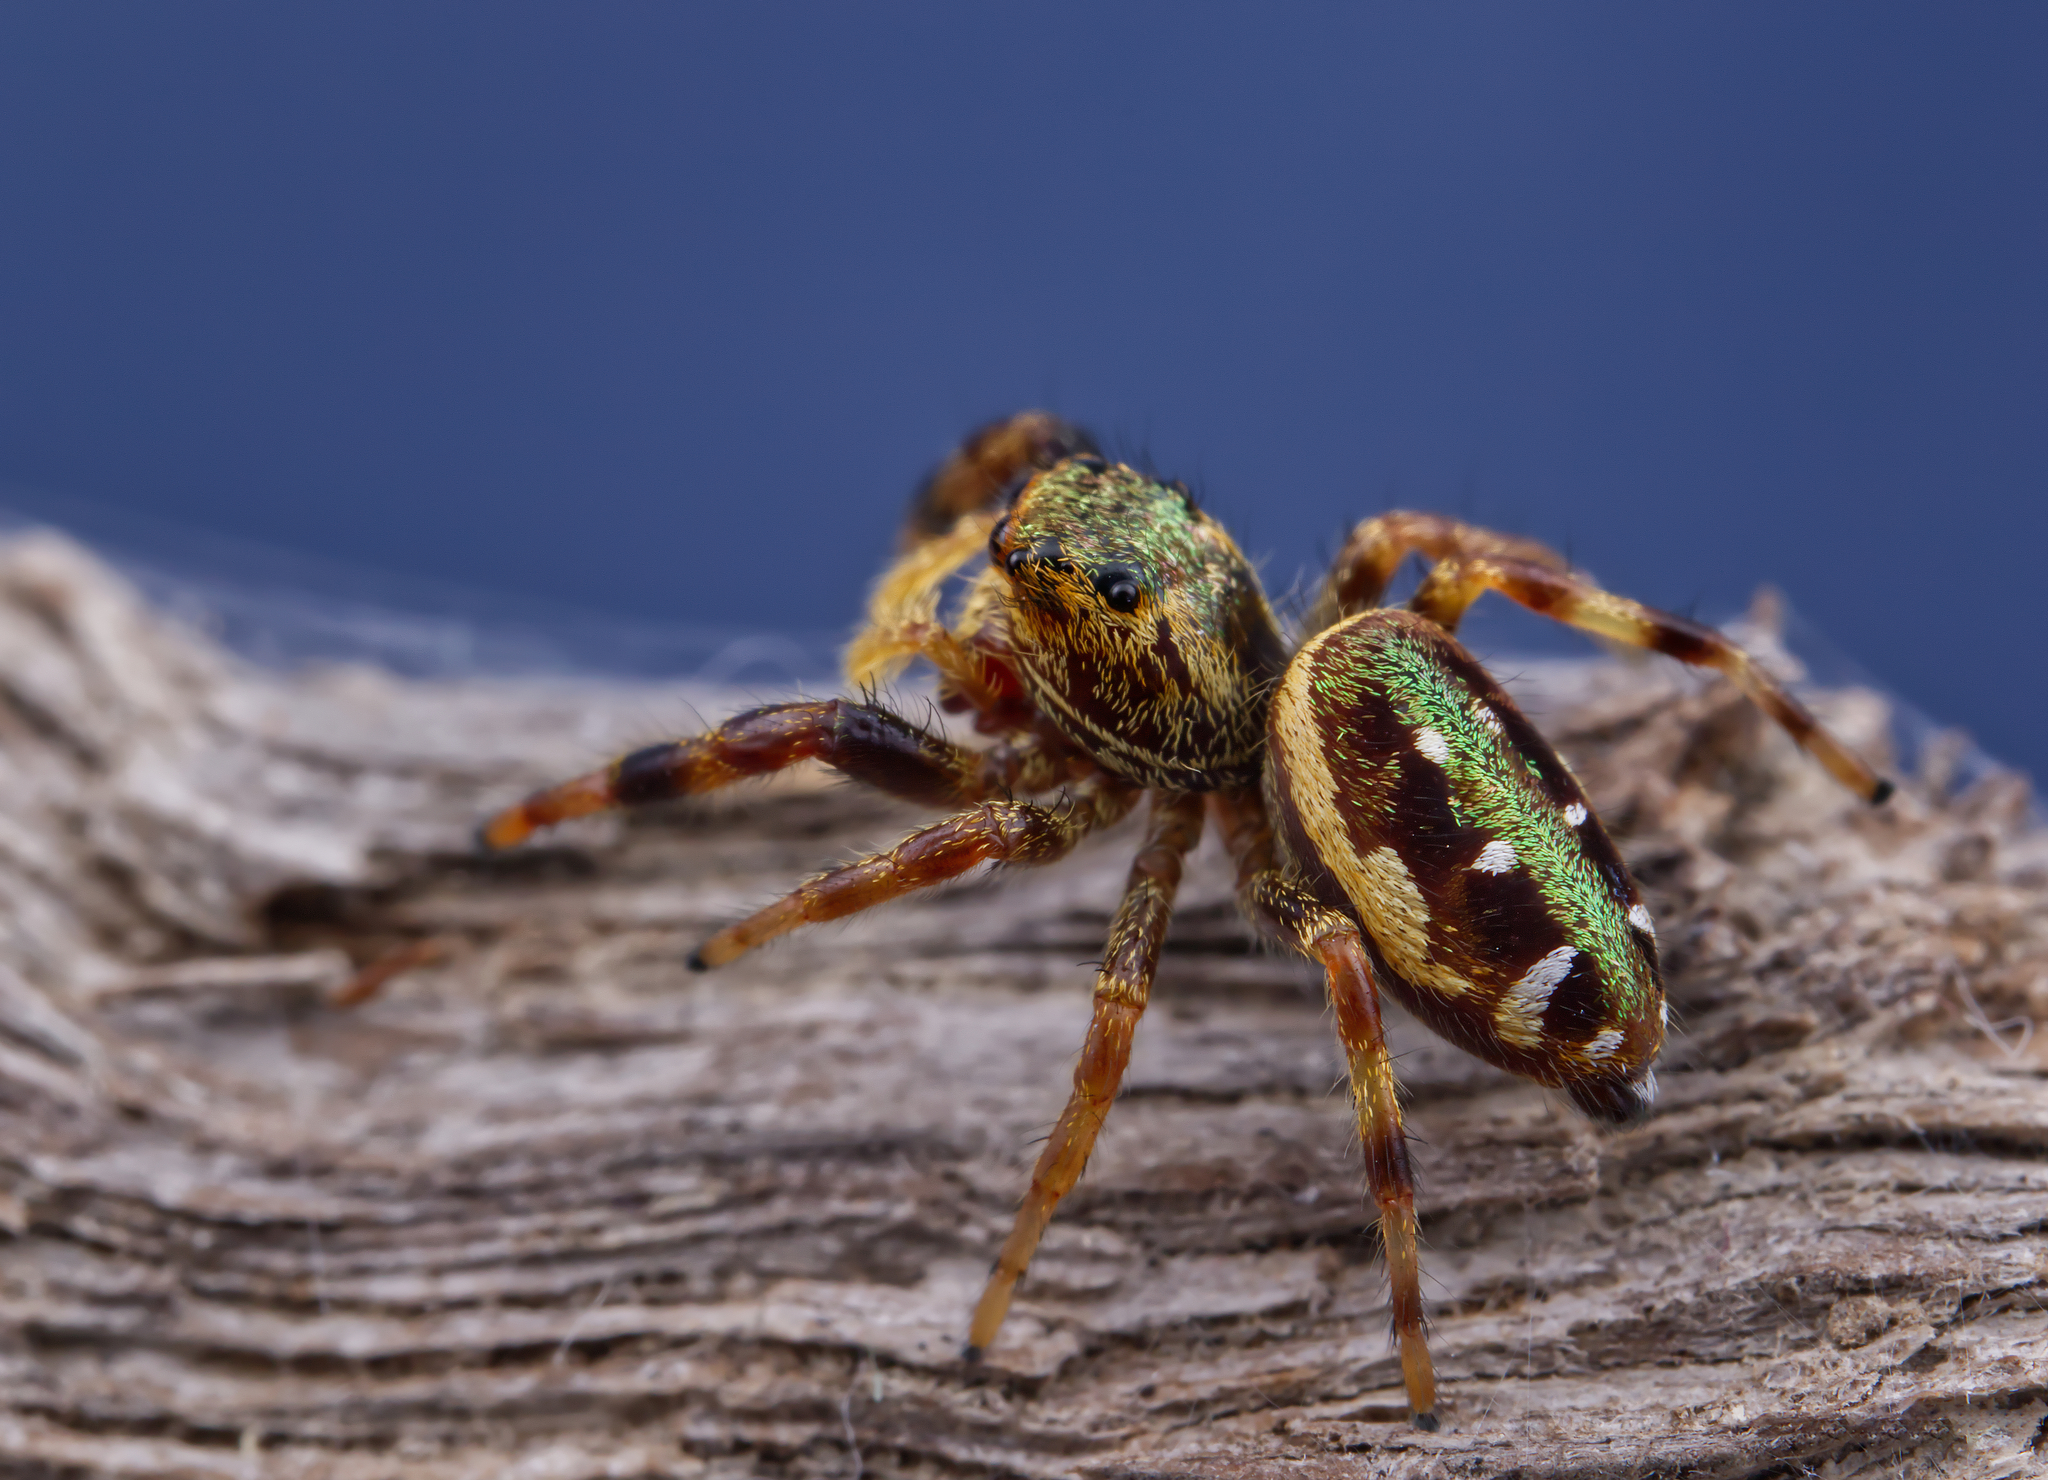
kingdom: Animalia
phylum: Arthropoda
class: Arachnida
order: Araneae
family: Salticidae
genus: Paraphidippus
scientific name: Paraphidippus aurantius
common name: Jumping spiders
